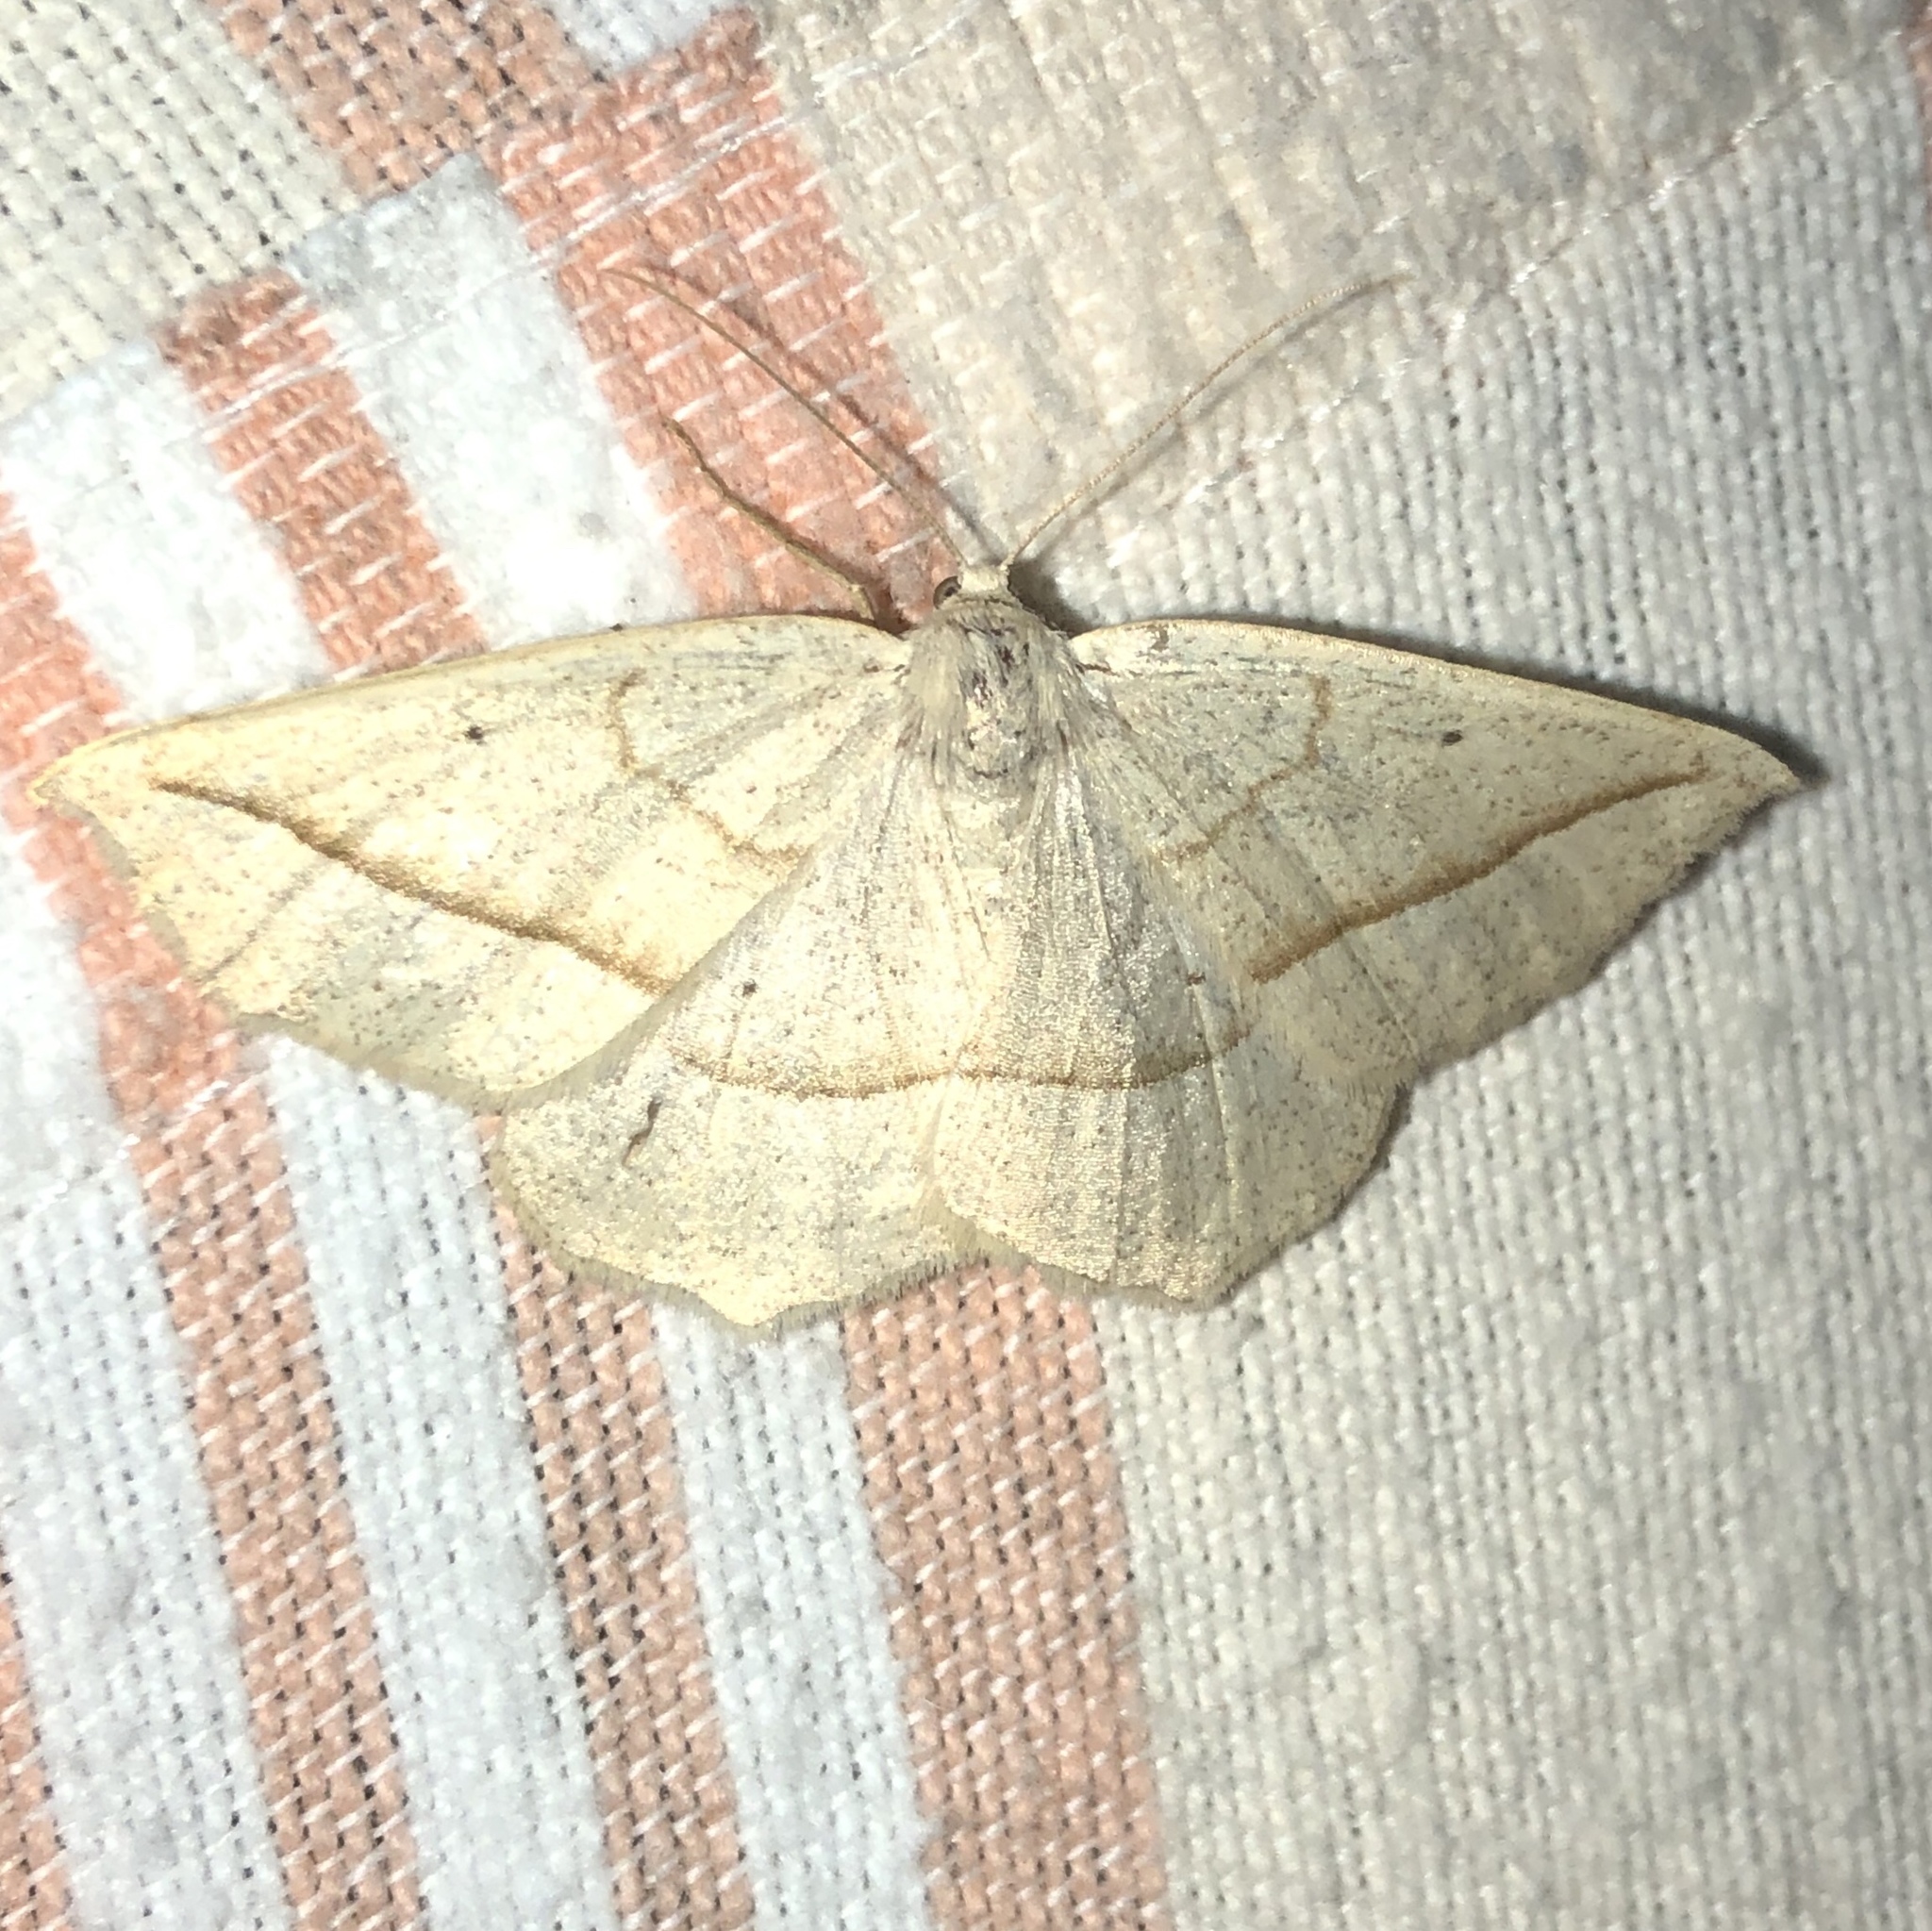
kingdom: Animalia
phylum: Arthropoda
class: Insecta
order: Lepidoptera
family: Geometridae
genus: Eusarca
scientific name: Eusarca confusaria
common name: Confused eusarca
